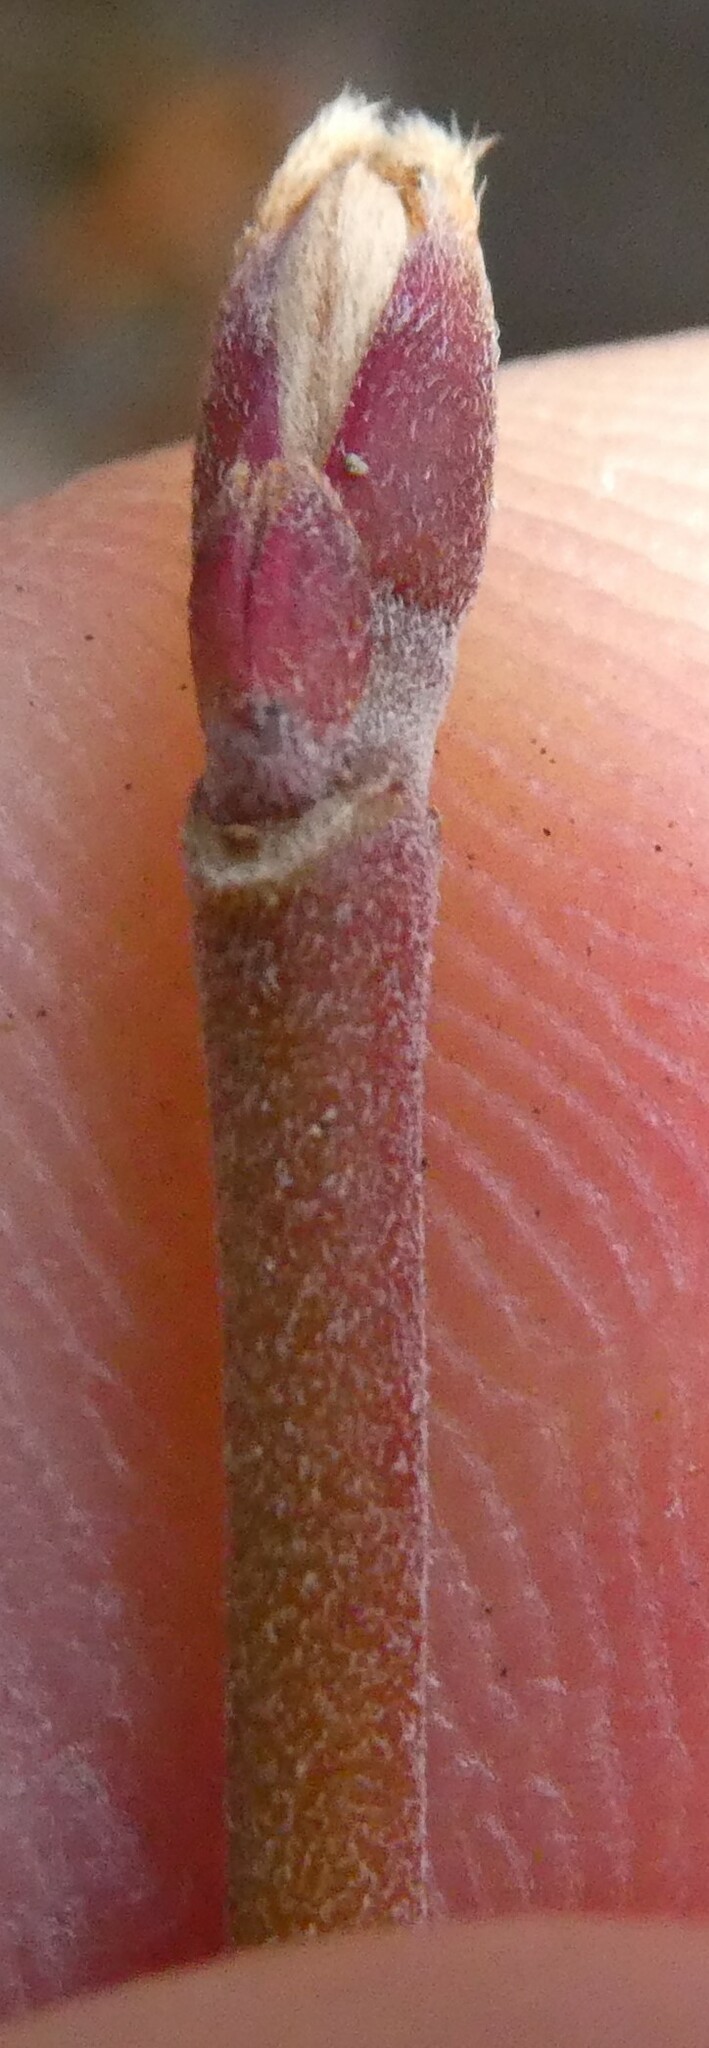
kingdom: Plantae
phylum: Tracheophyta
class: Magnoliopsida
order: Sapindales
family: Sapindaceae
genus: Acer
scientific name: Acer spicatum
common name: Mountain maple
